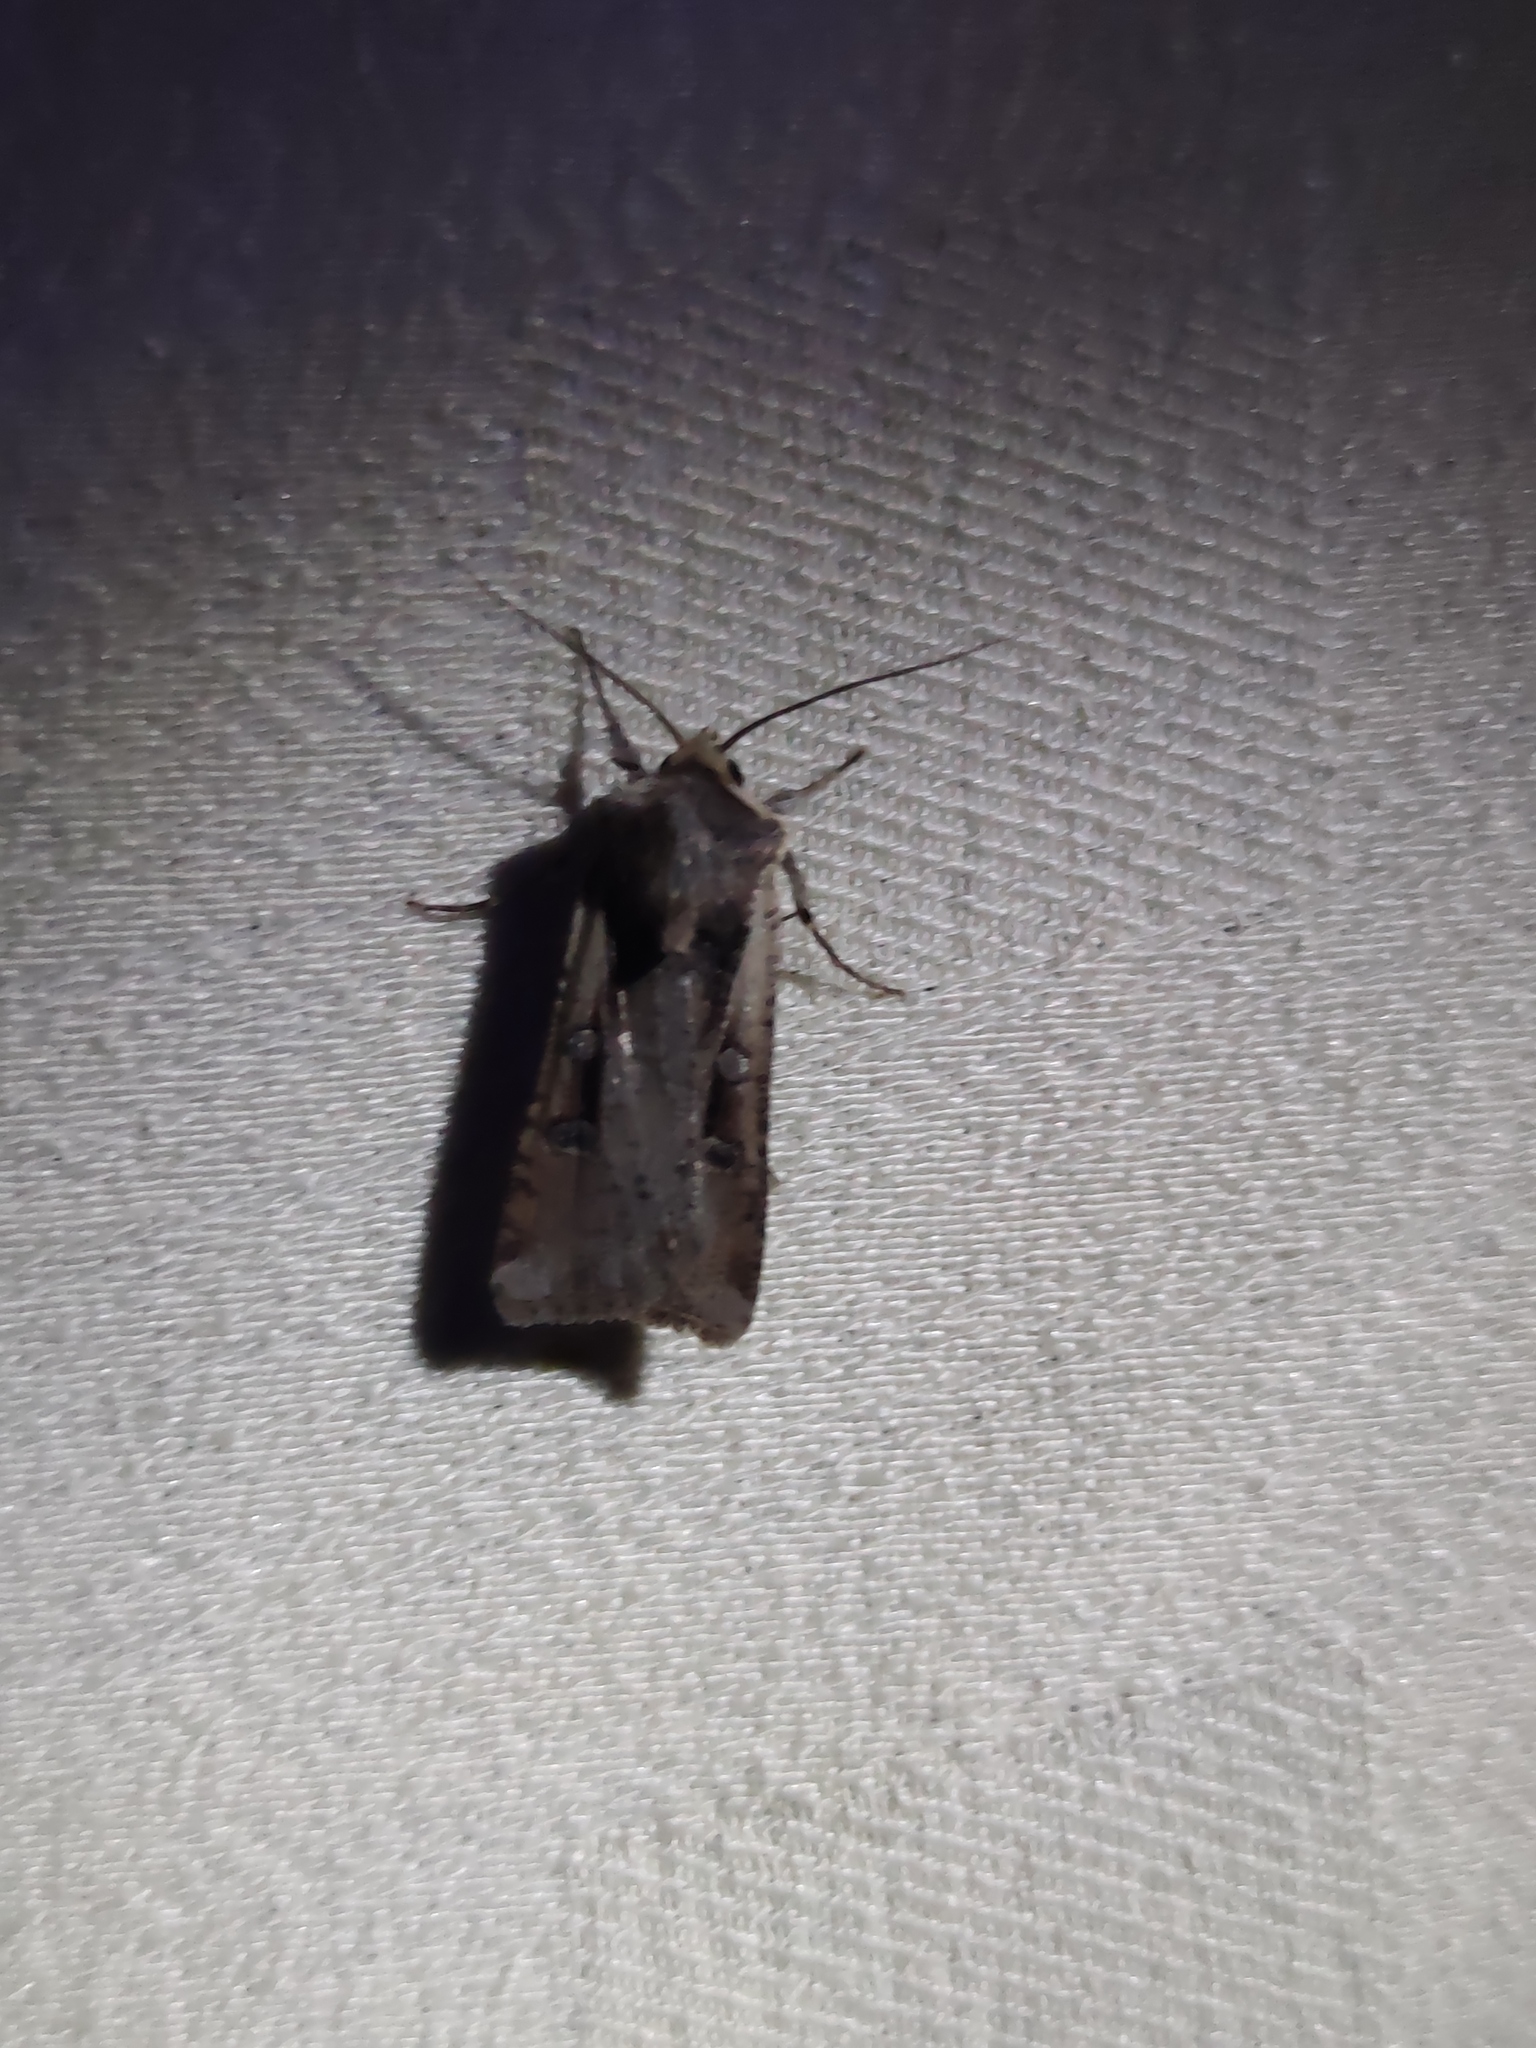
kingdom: Animalia
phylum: Arthropoda
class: Insecta
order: Lepidoptera
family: Noctuidae
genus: Hemieuxoa
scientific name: Hemieuxoa rudens
